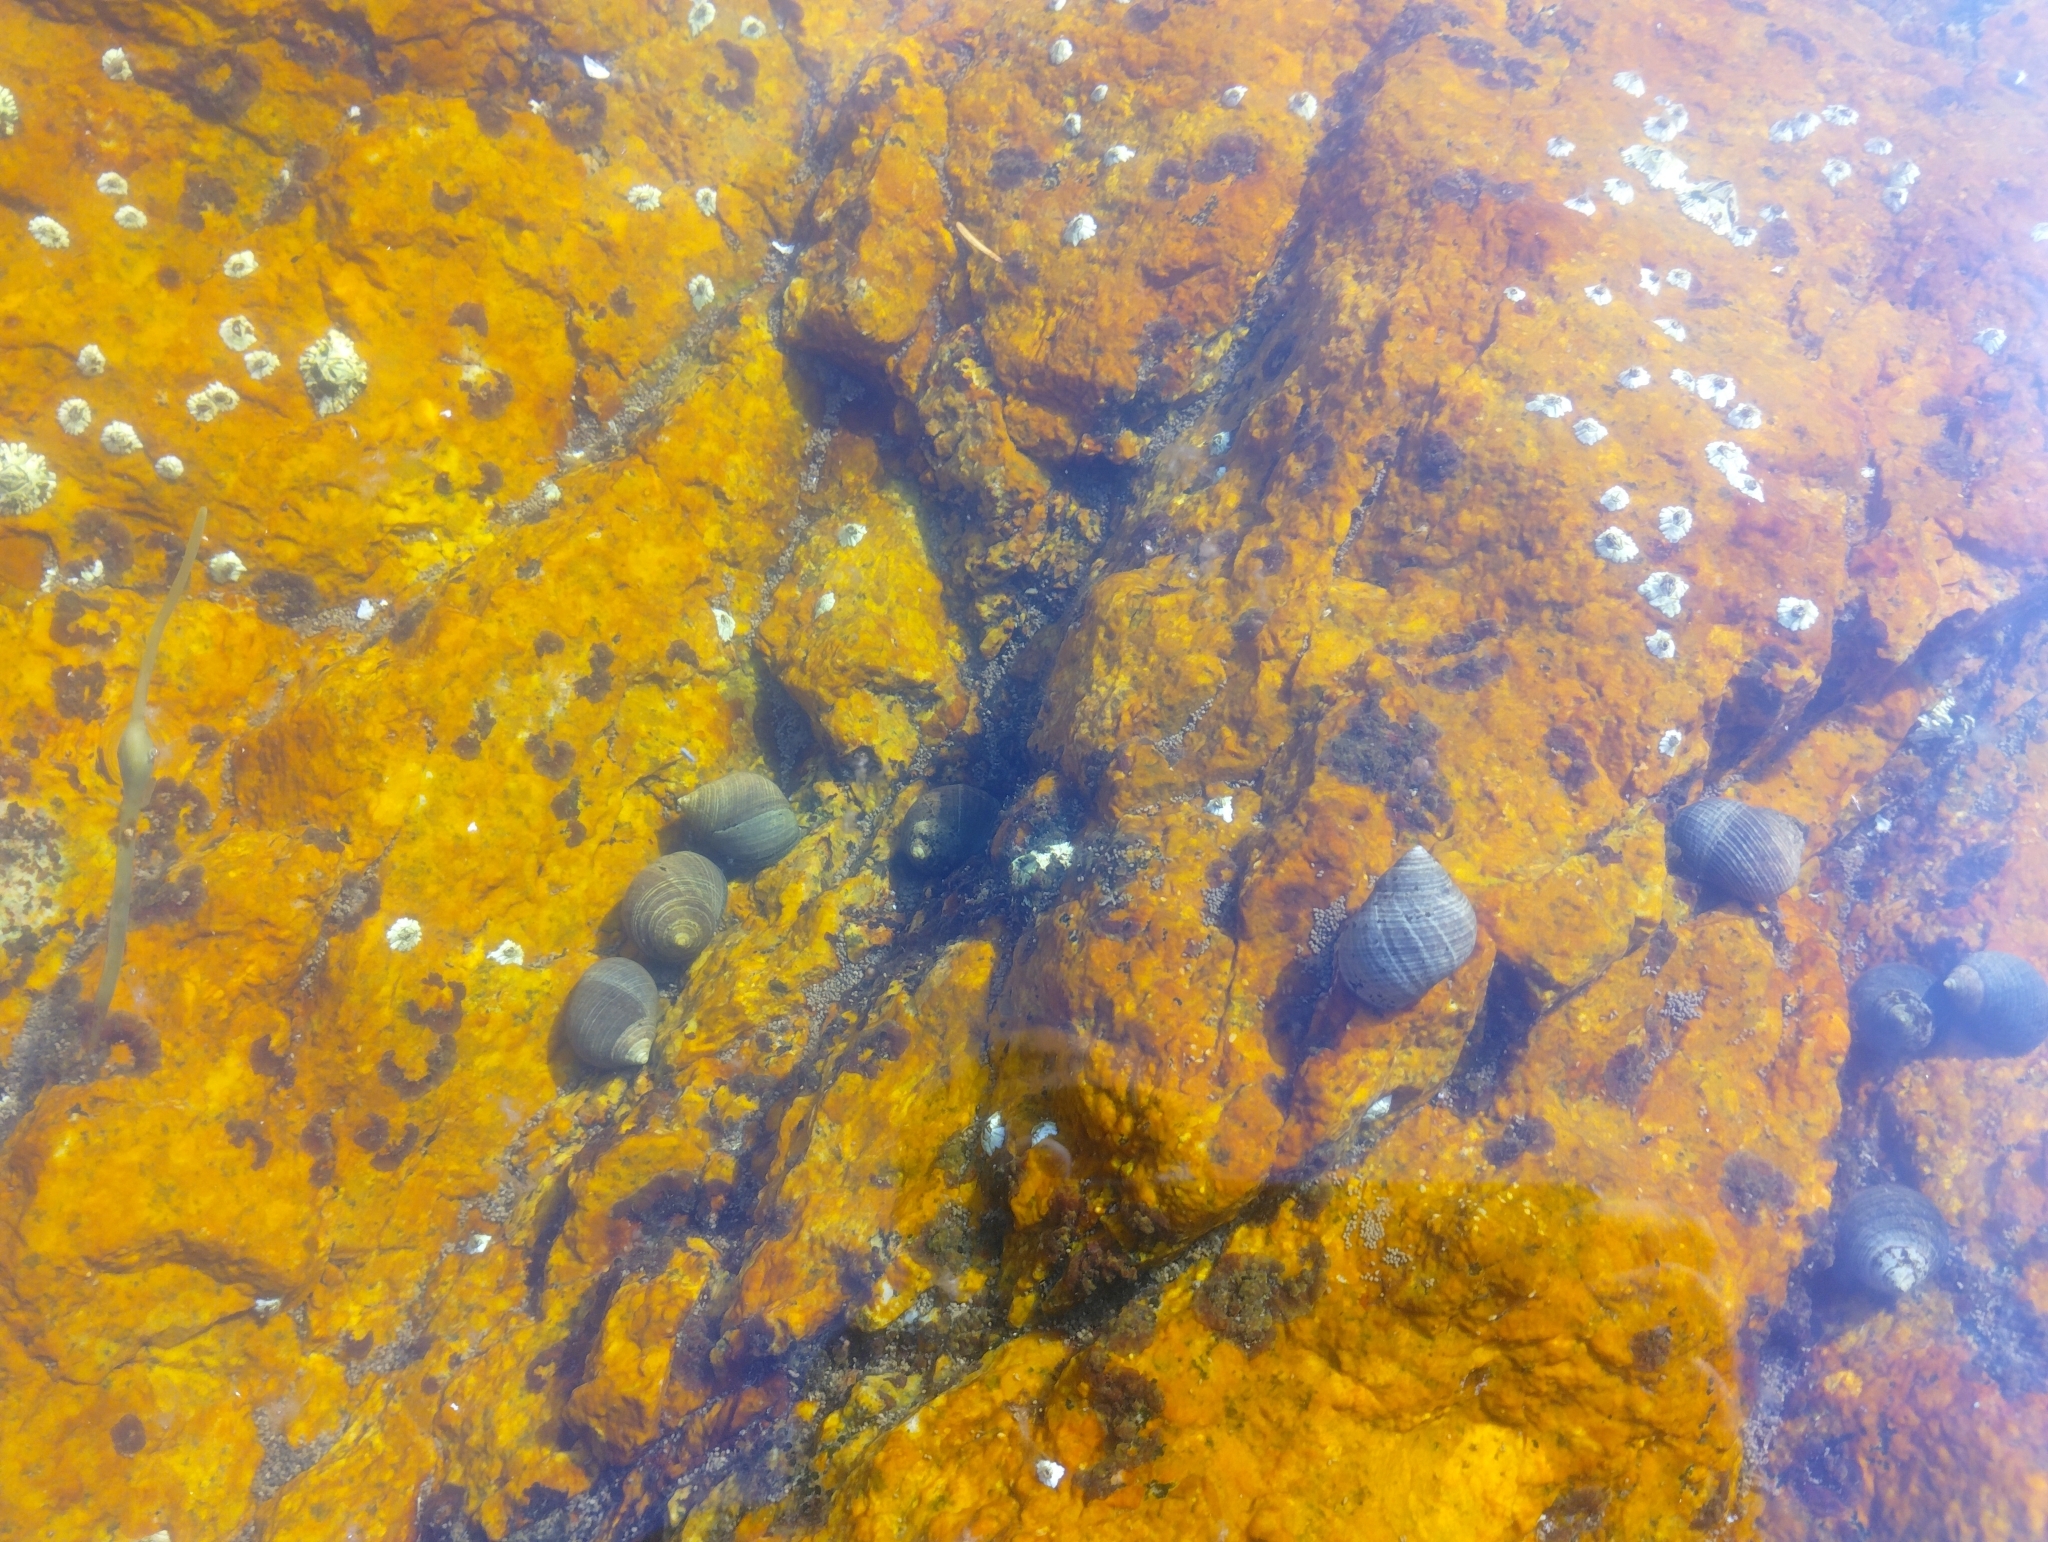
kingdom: Animalia
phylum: Mollusca
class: Gastropoda
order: Littorinimorpha
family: Littorinidae
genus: Littorina
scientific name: Littorina littorea
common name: Common periwinkle
